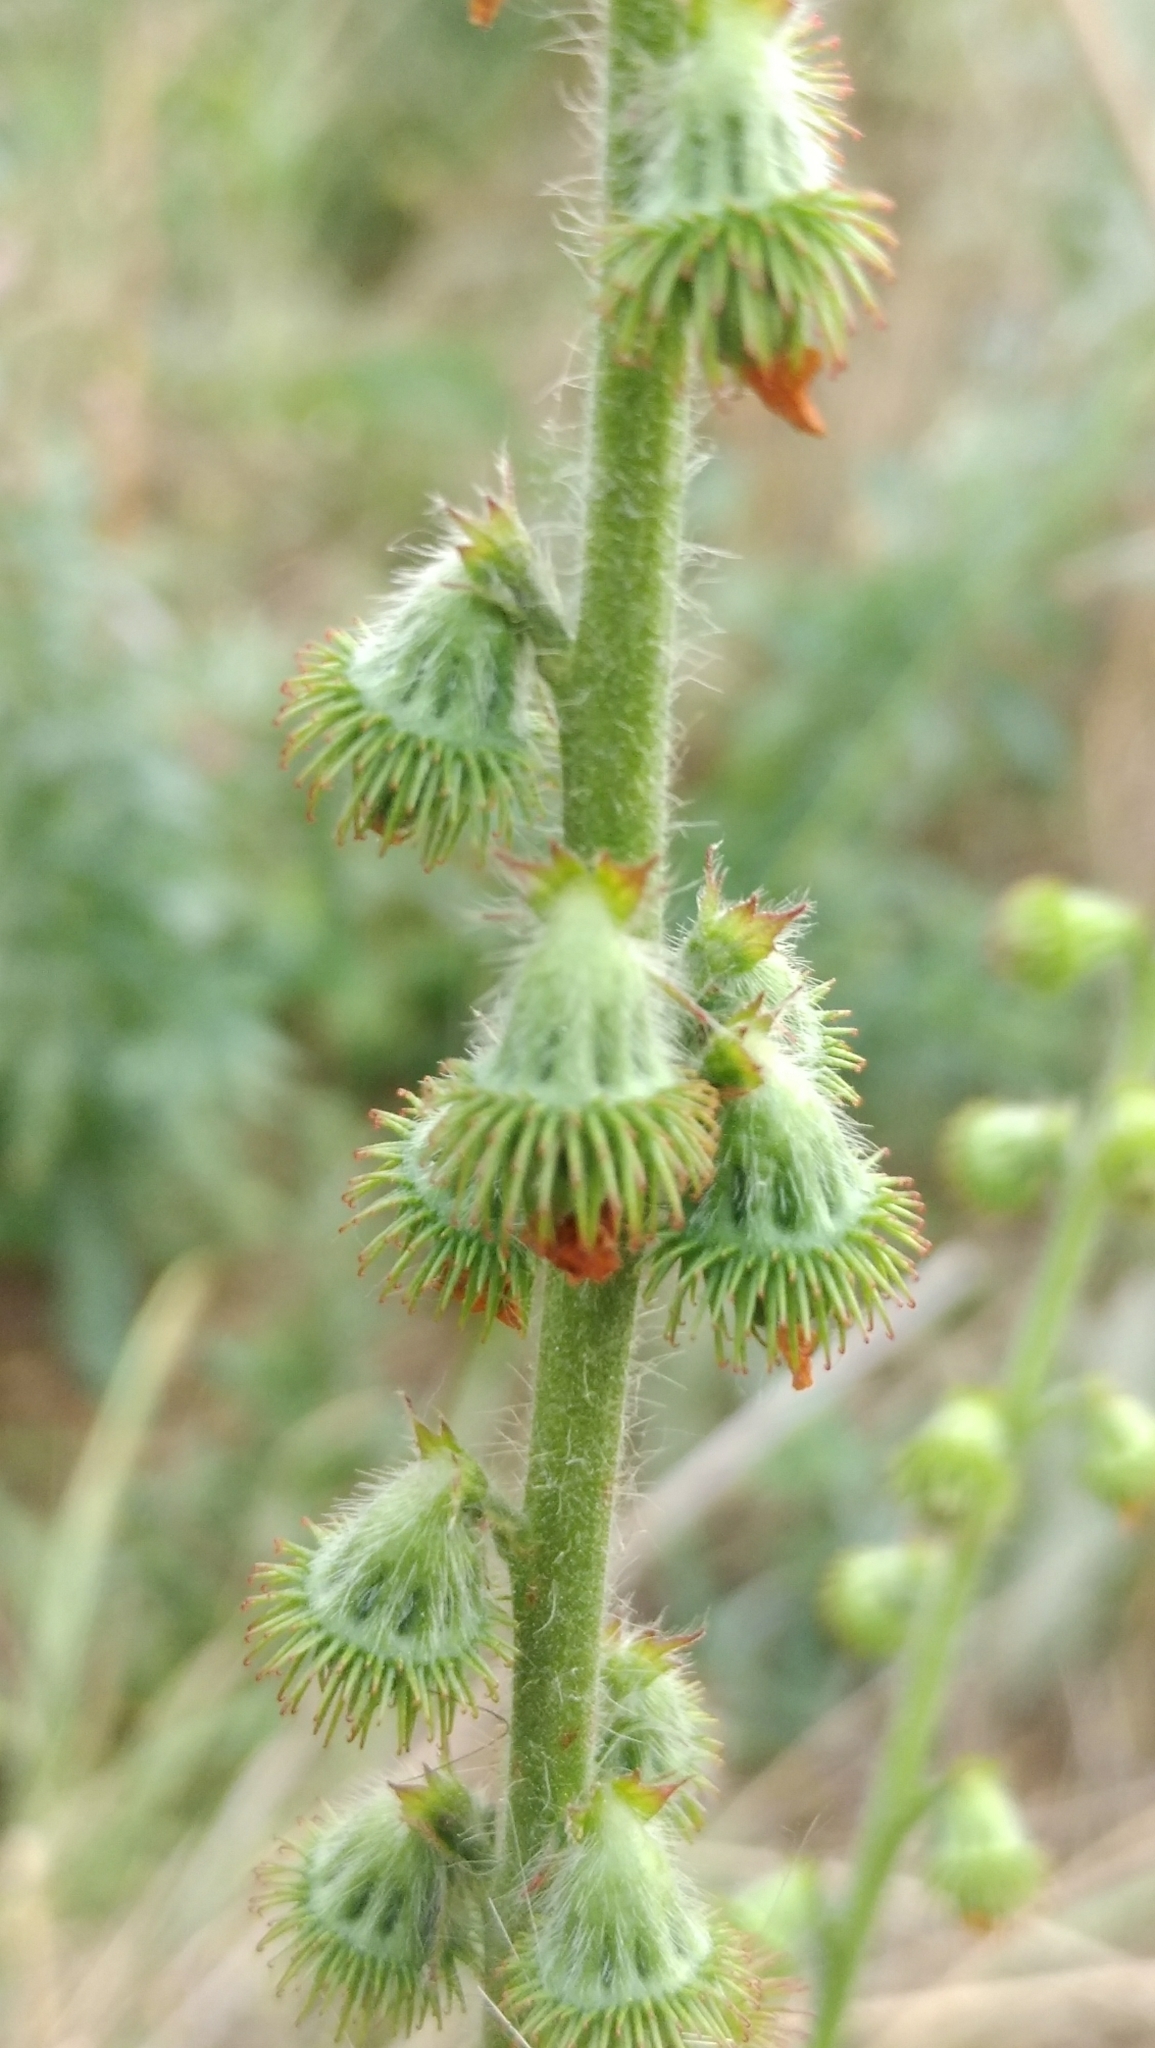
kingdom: Plantae
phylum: Tracheophyta
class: Magnoliopsida
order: Rosales
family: Rosaceae
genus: Agrimonia
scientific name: Agrimonia eupatoria
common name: Agrimony
